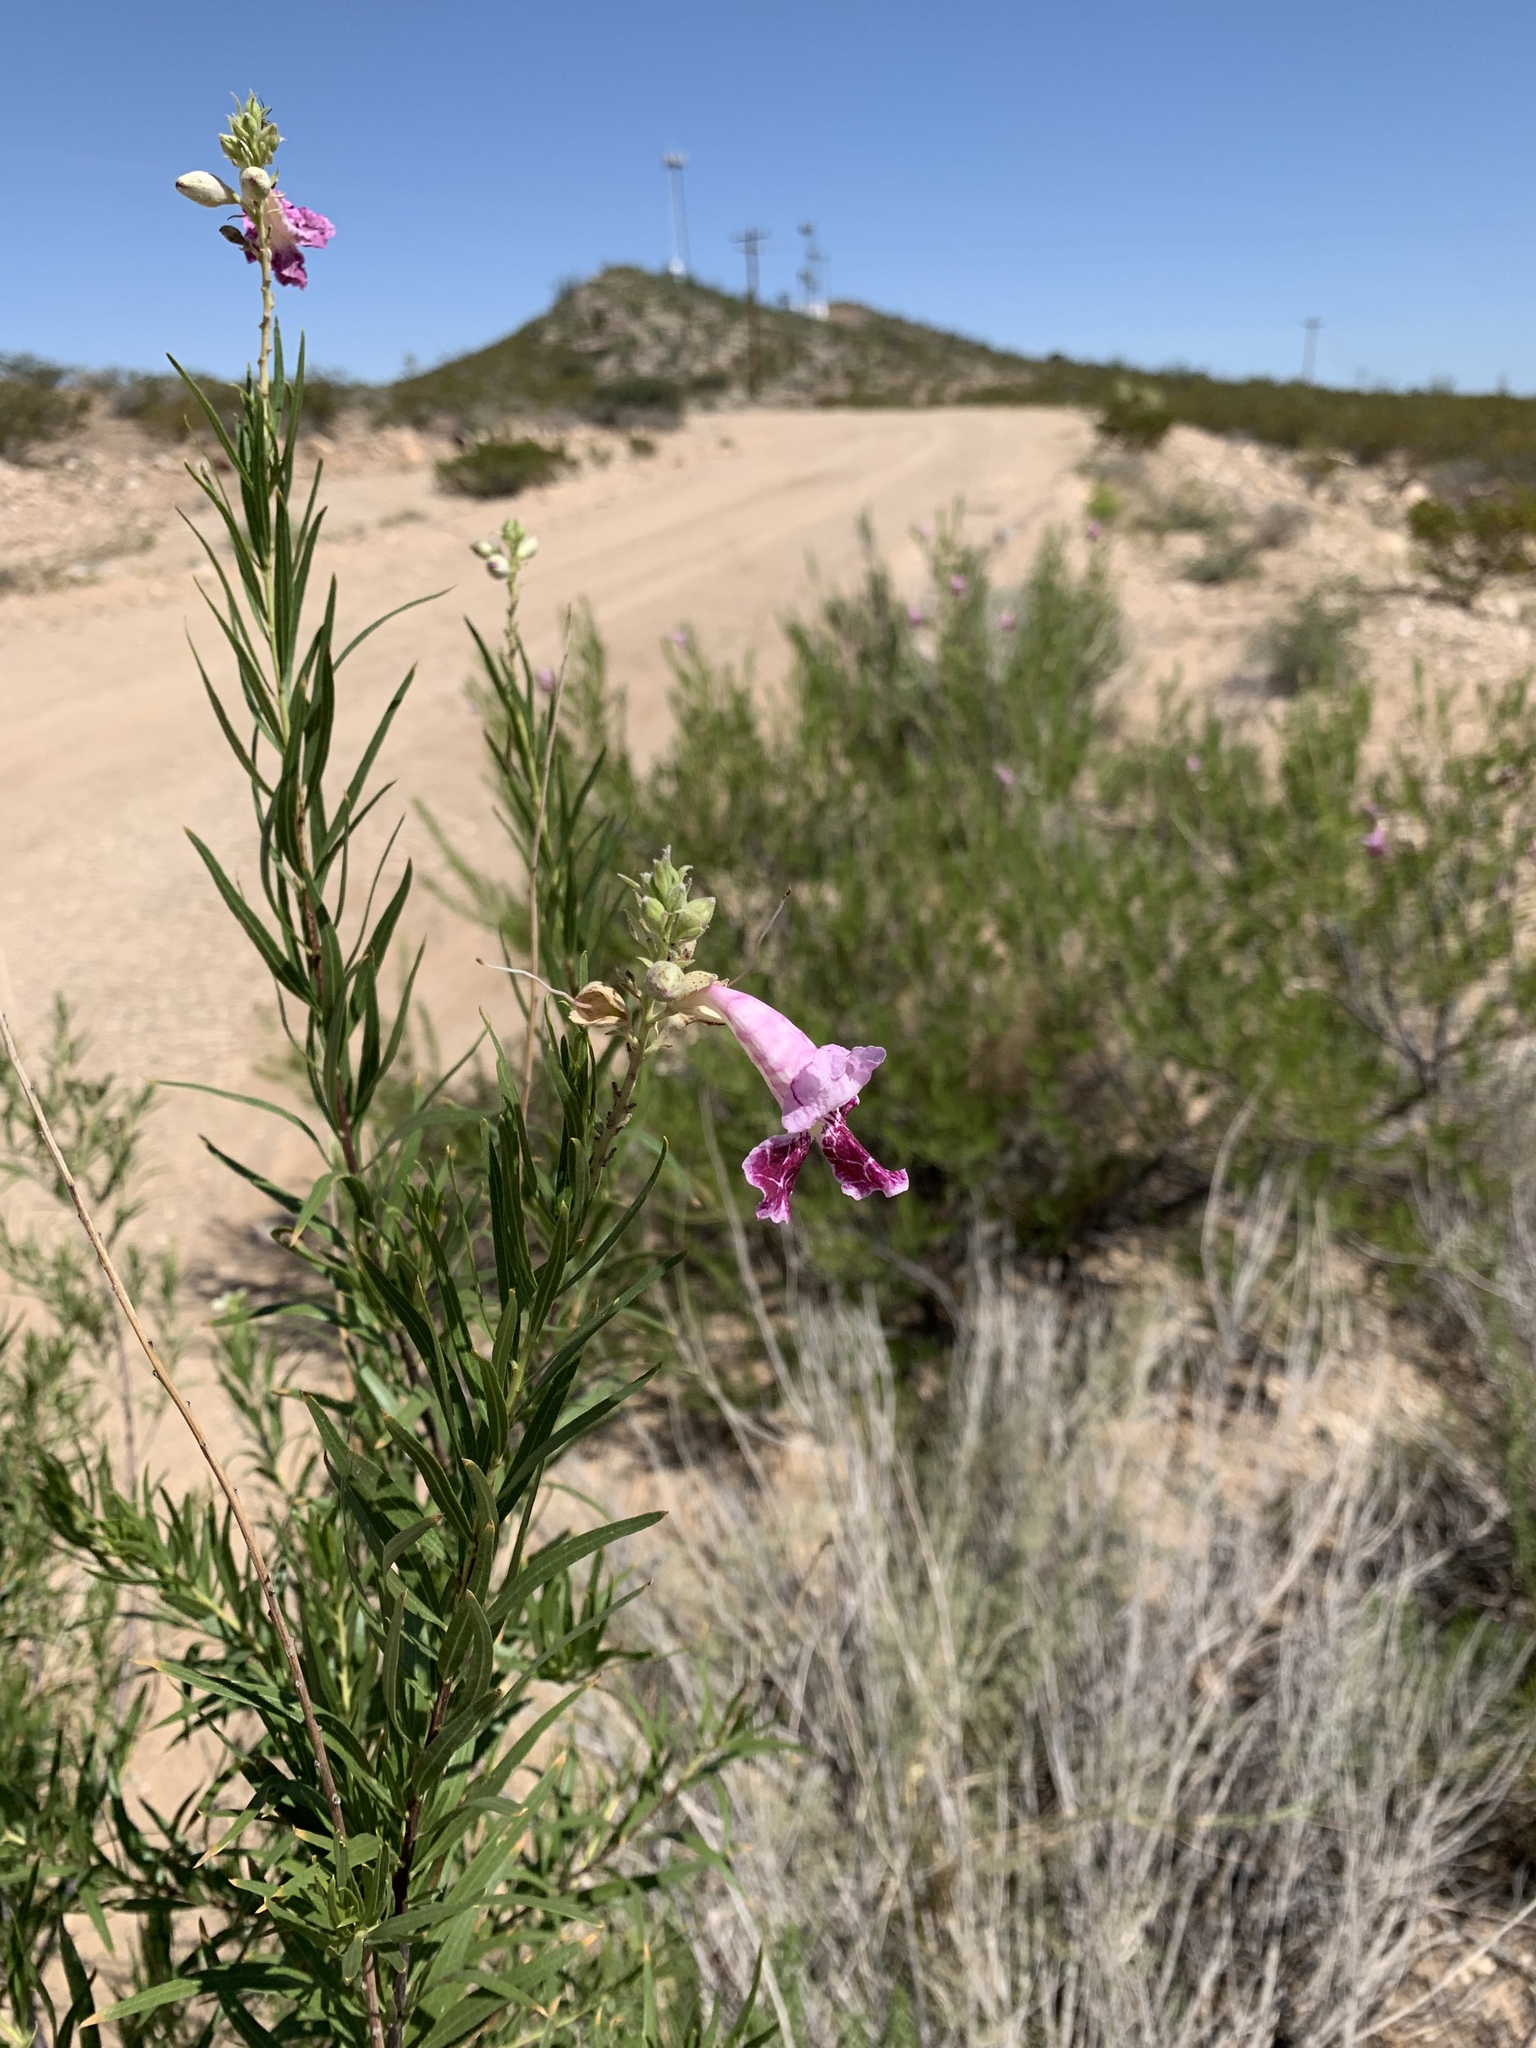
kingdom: Plantae
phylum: Tracheophyta
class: Magnoliopsida
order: Lamiales
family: Bignoniaceae
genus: Chilopsis
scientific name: Chilopsis linearis
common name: Desert-willow
